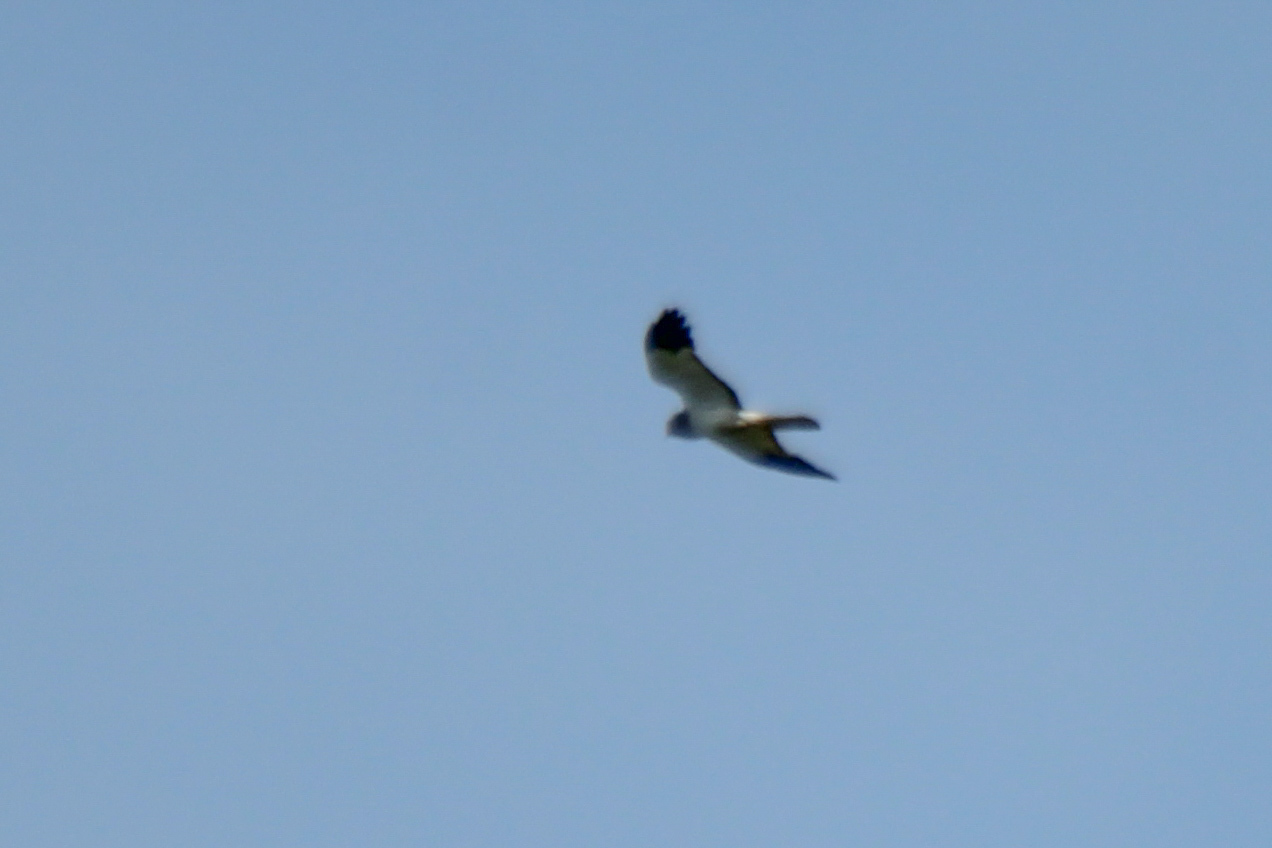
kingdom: Animalia
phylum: Chordata
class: Aves
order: Accipitriformes
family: Accipitridae
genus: Circus
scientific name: Circus cyaneus
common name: Hen harrier
